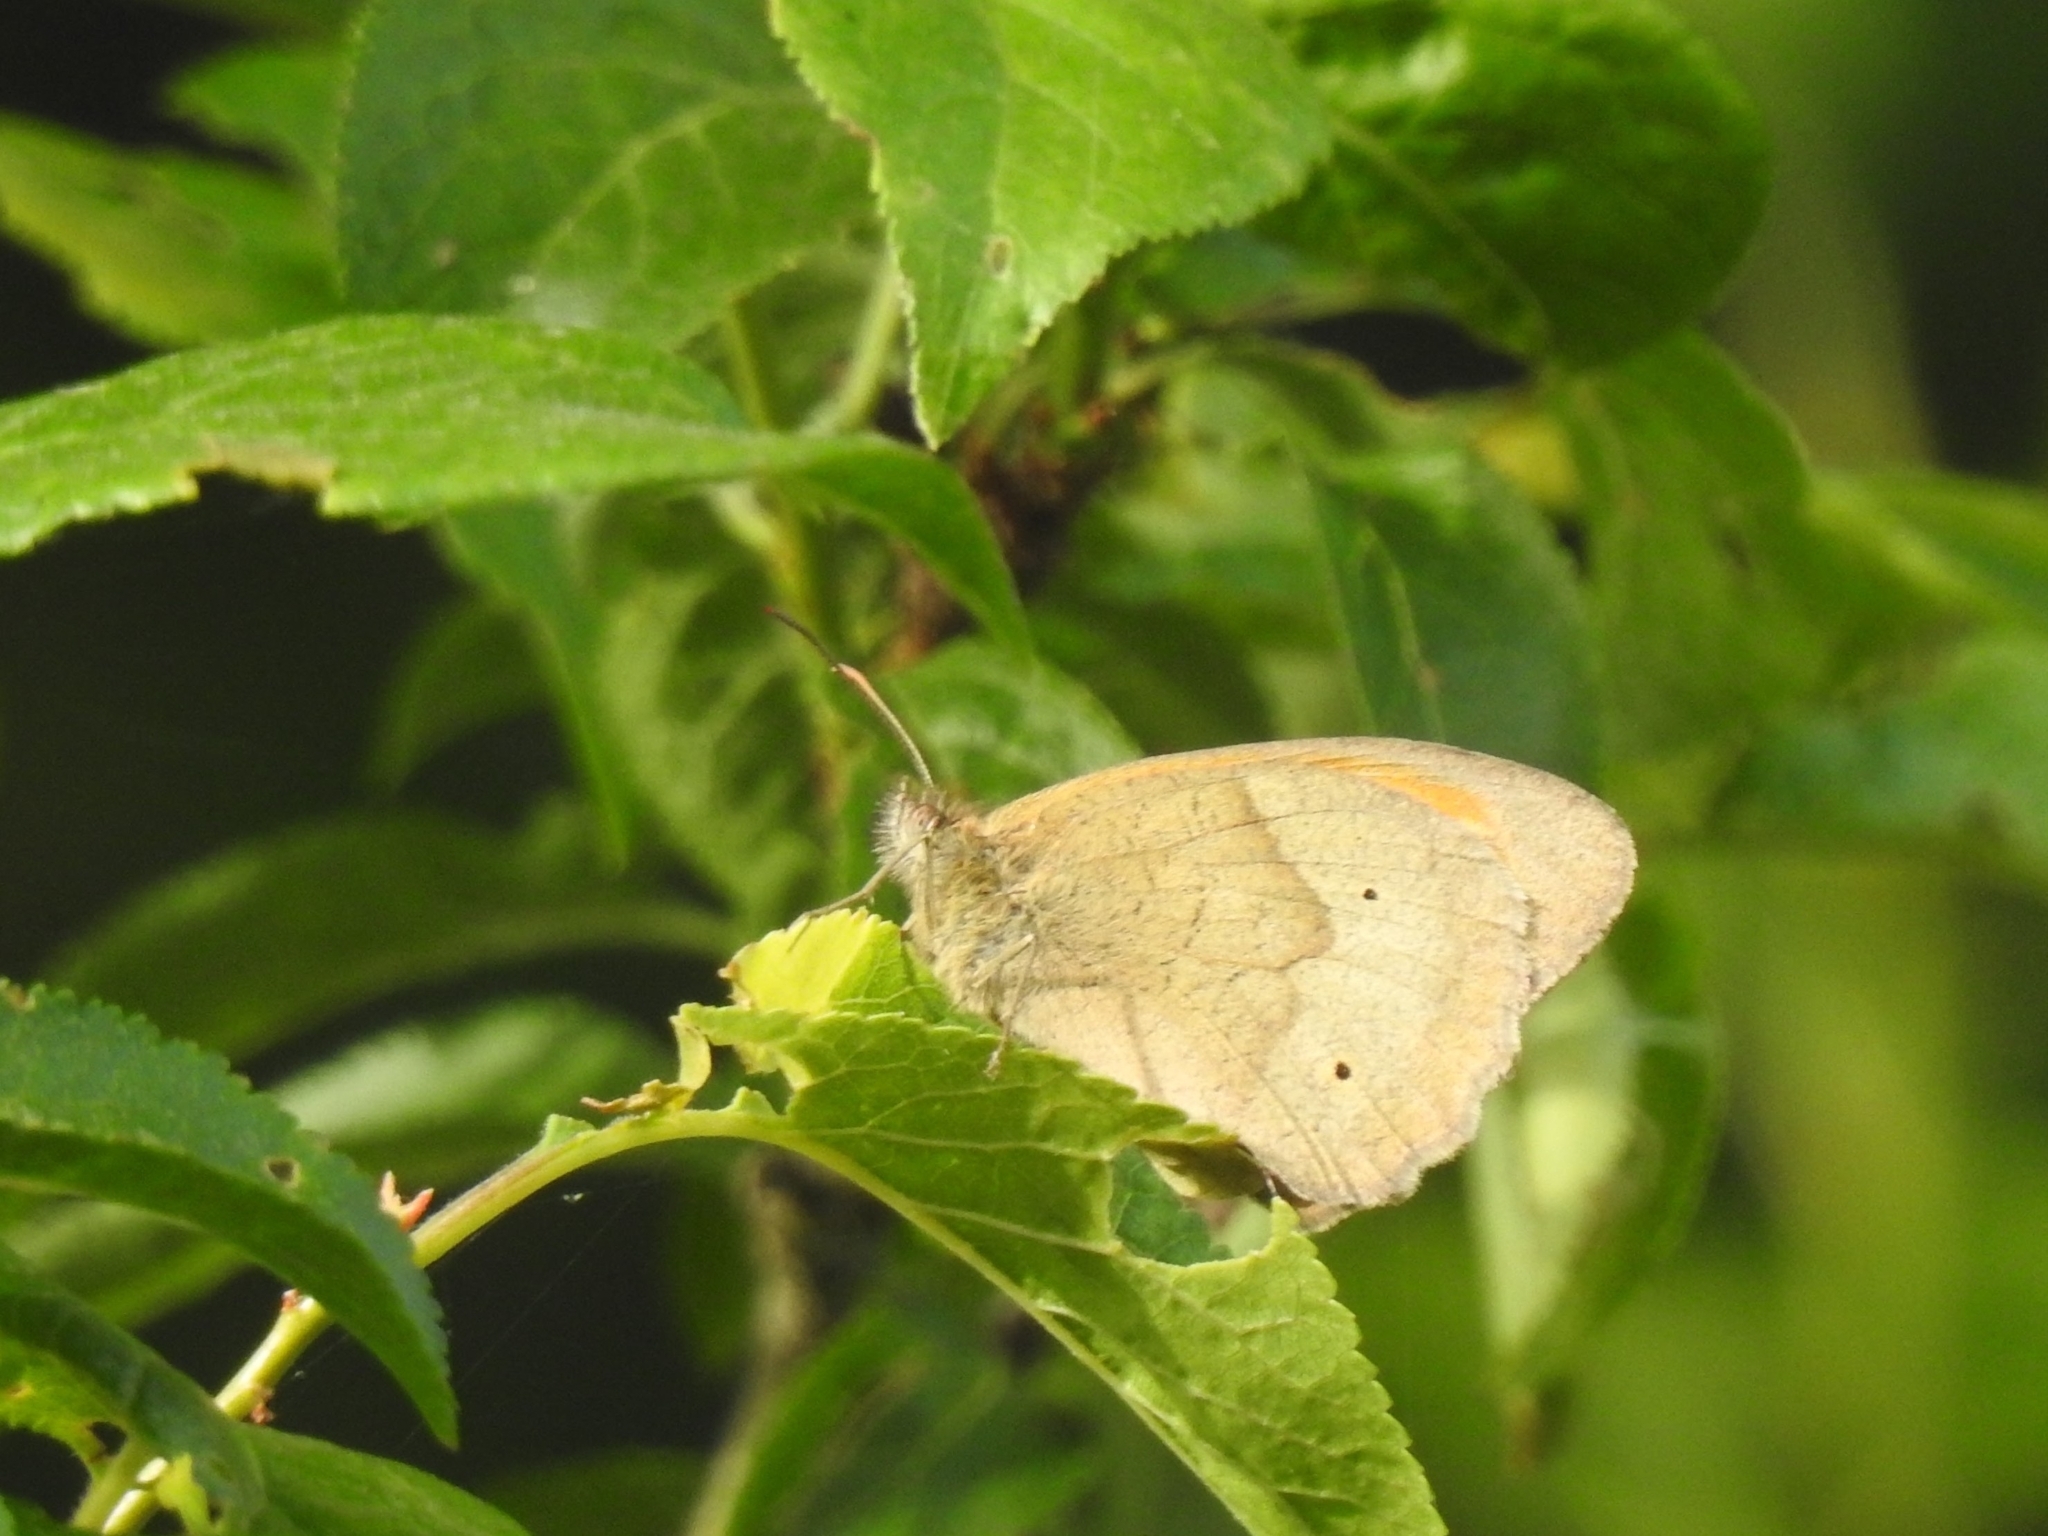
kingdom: Animalia
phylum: Arthropoda
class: Insecta
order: Lepidoptera
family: Nymphalidae
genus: Maniola
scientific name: Maniola jurtina
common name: Meadow brown
